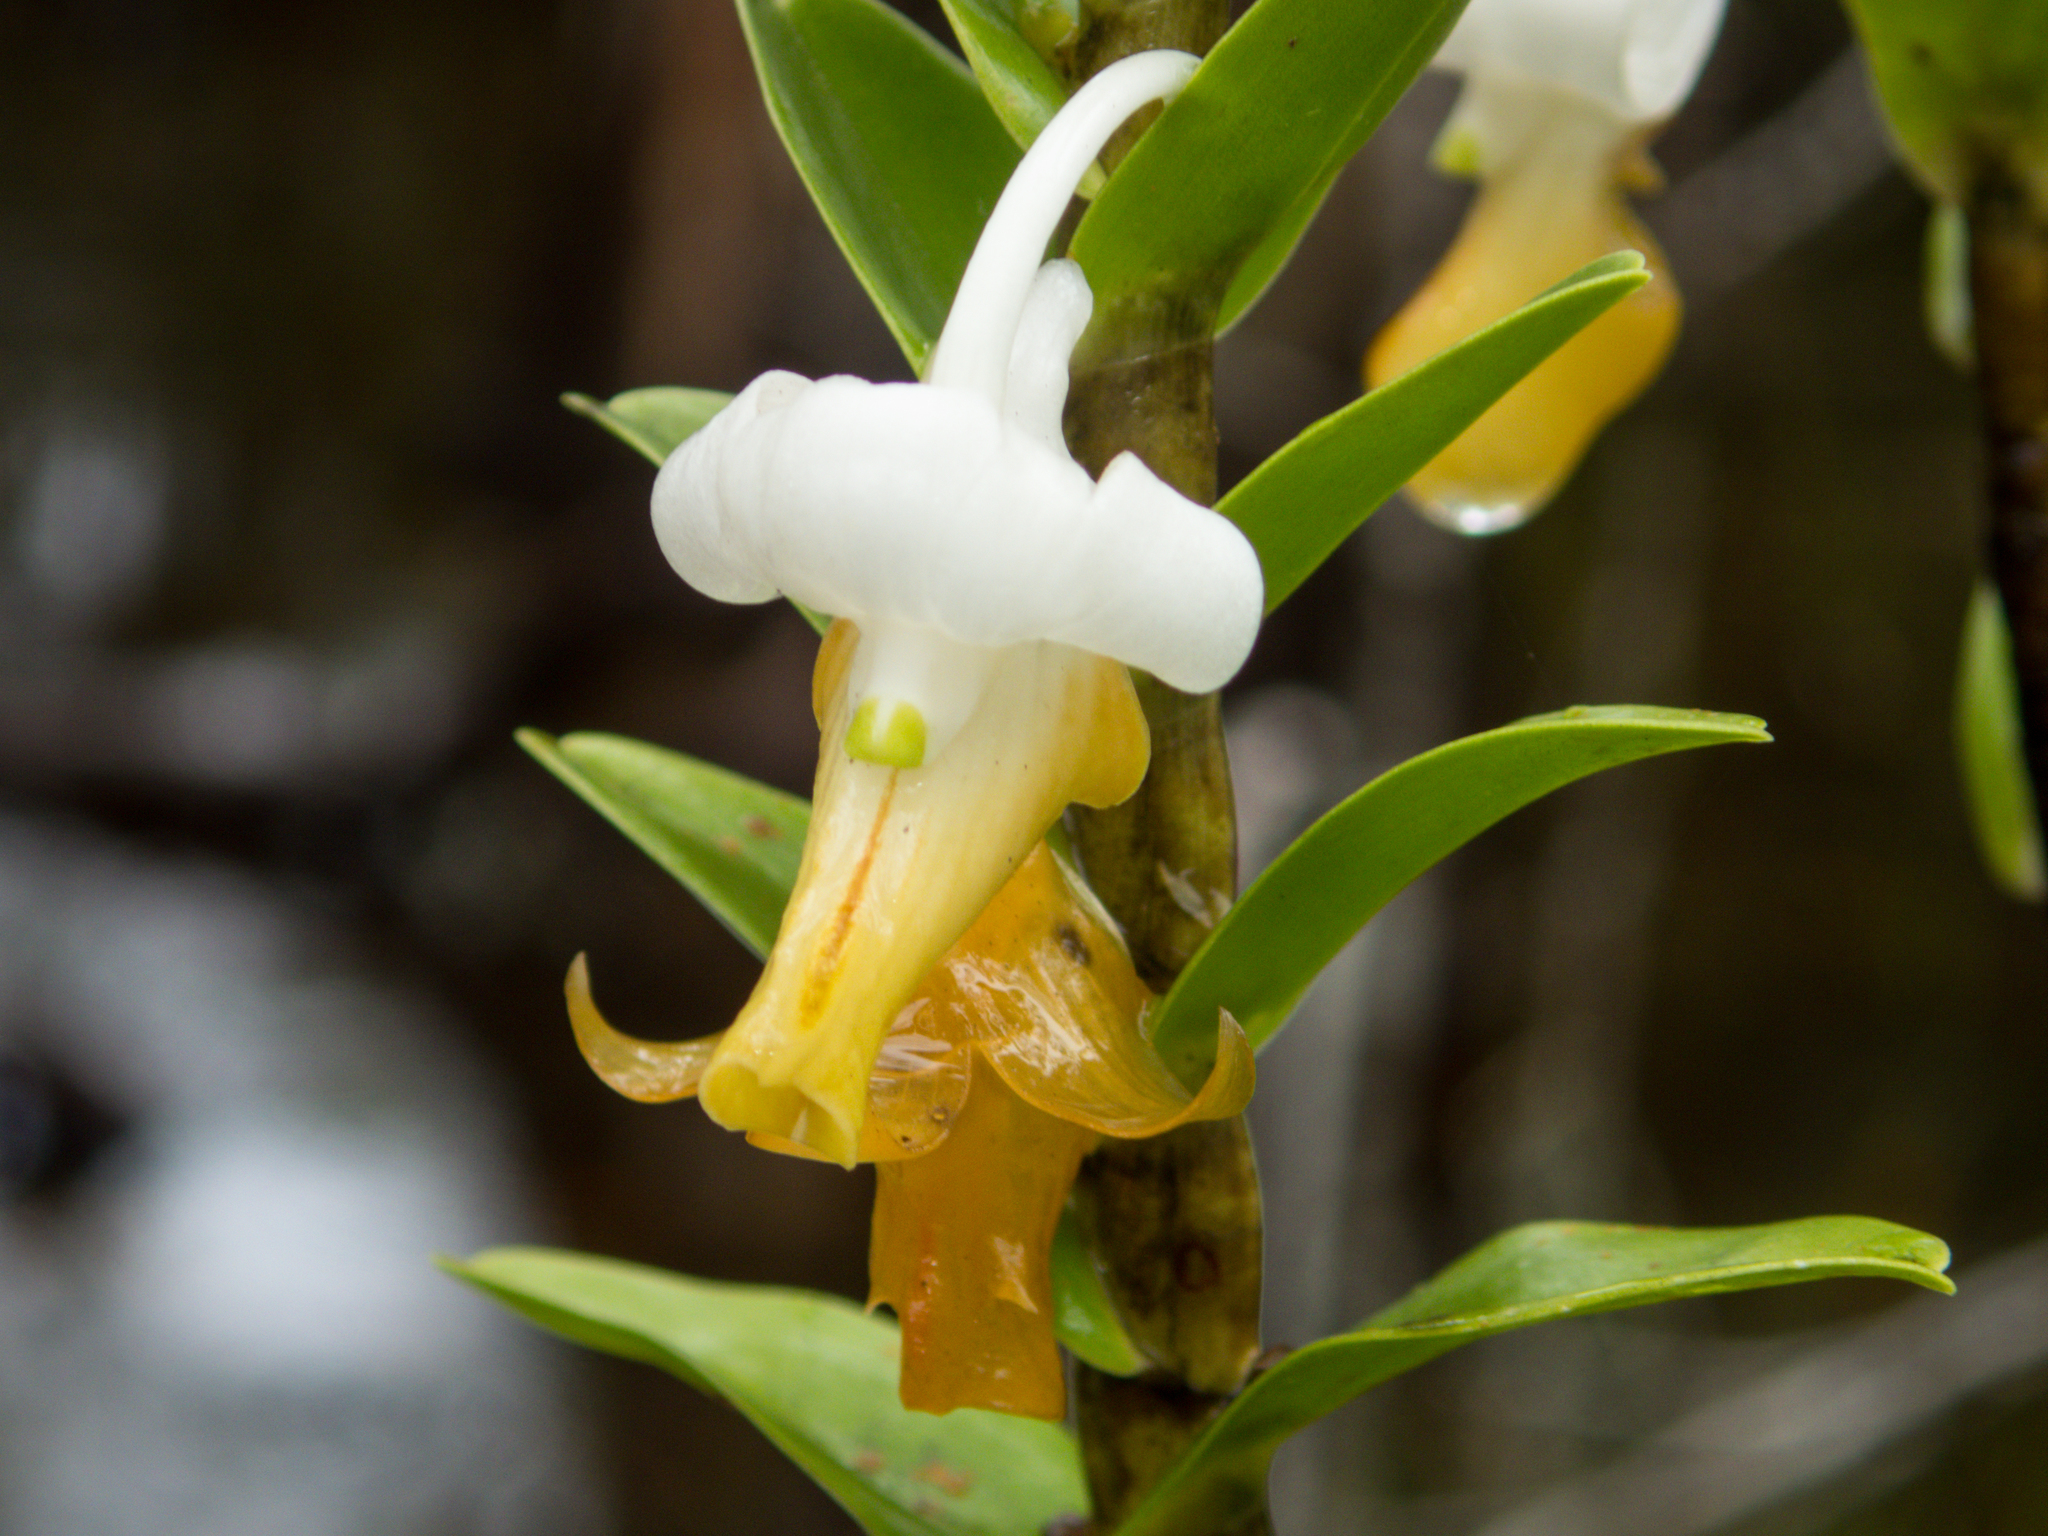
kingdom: Plantae
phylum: Tracheophyta
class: Liliopsida
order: Asparagales
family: Orchidaceae
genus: Dendrobium
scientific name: Dendrobium ellipsophyllum
